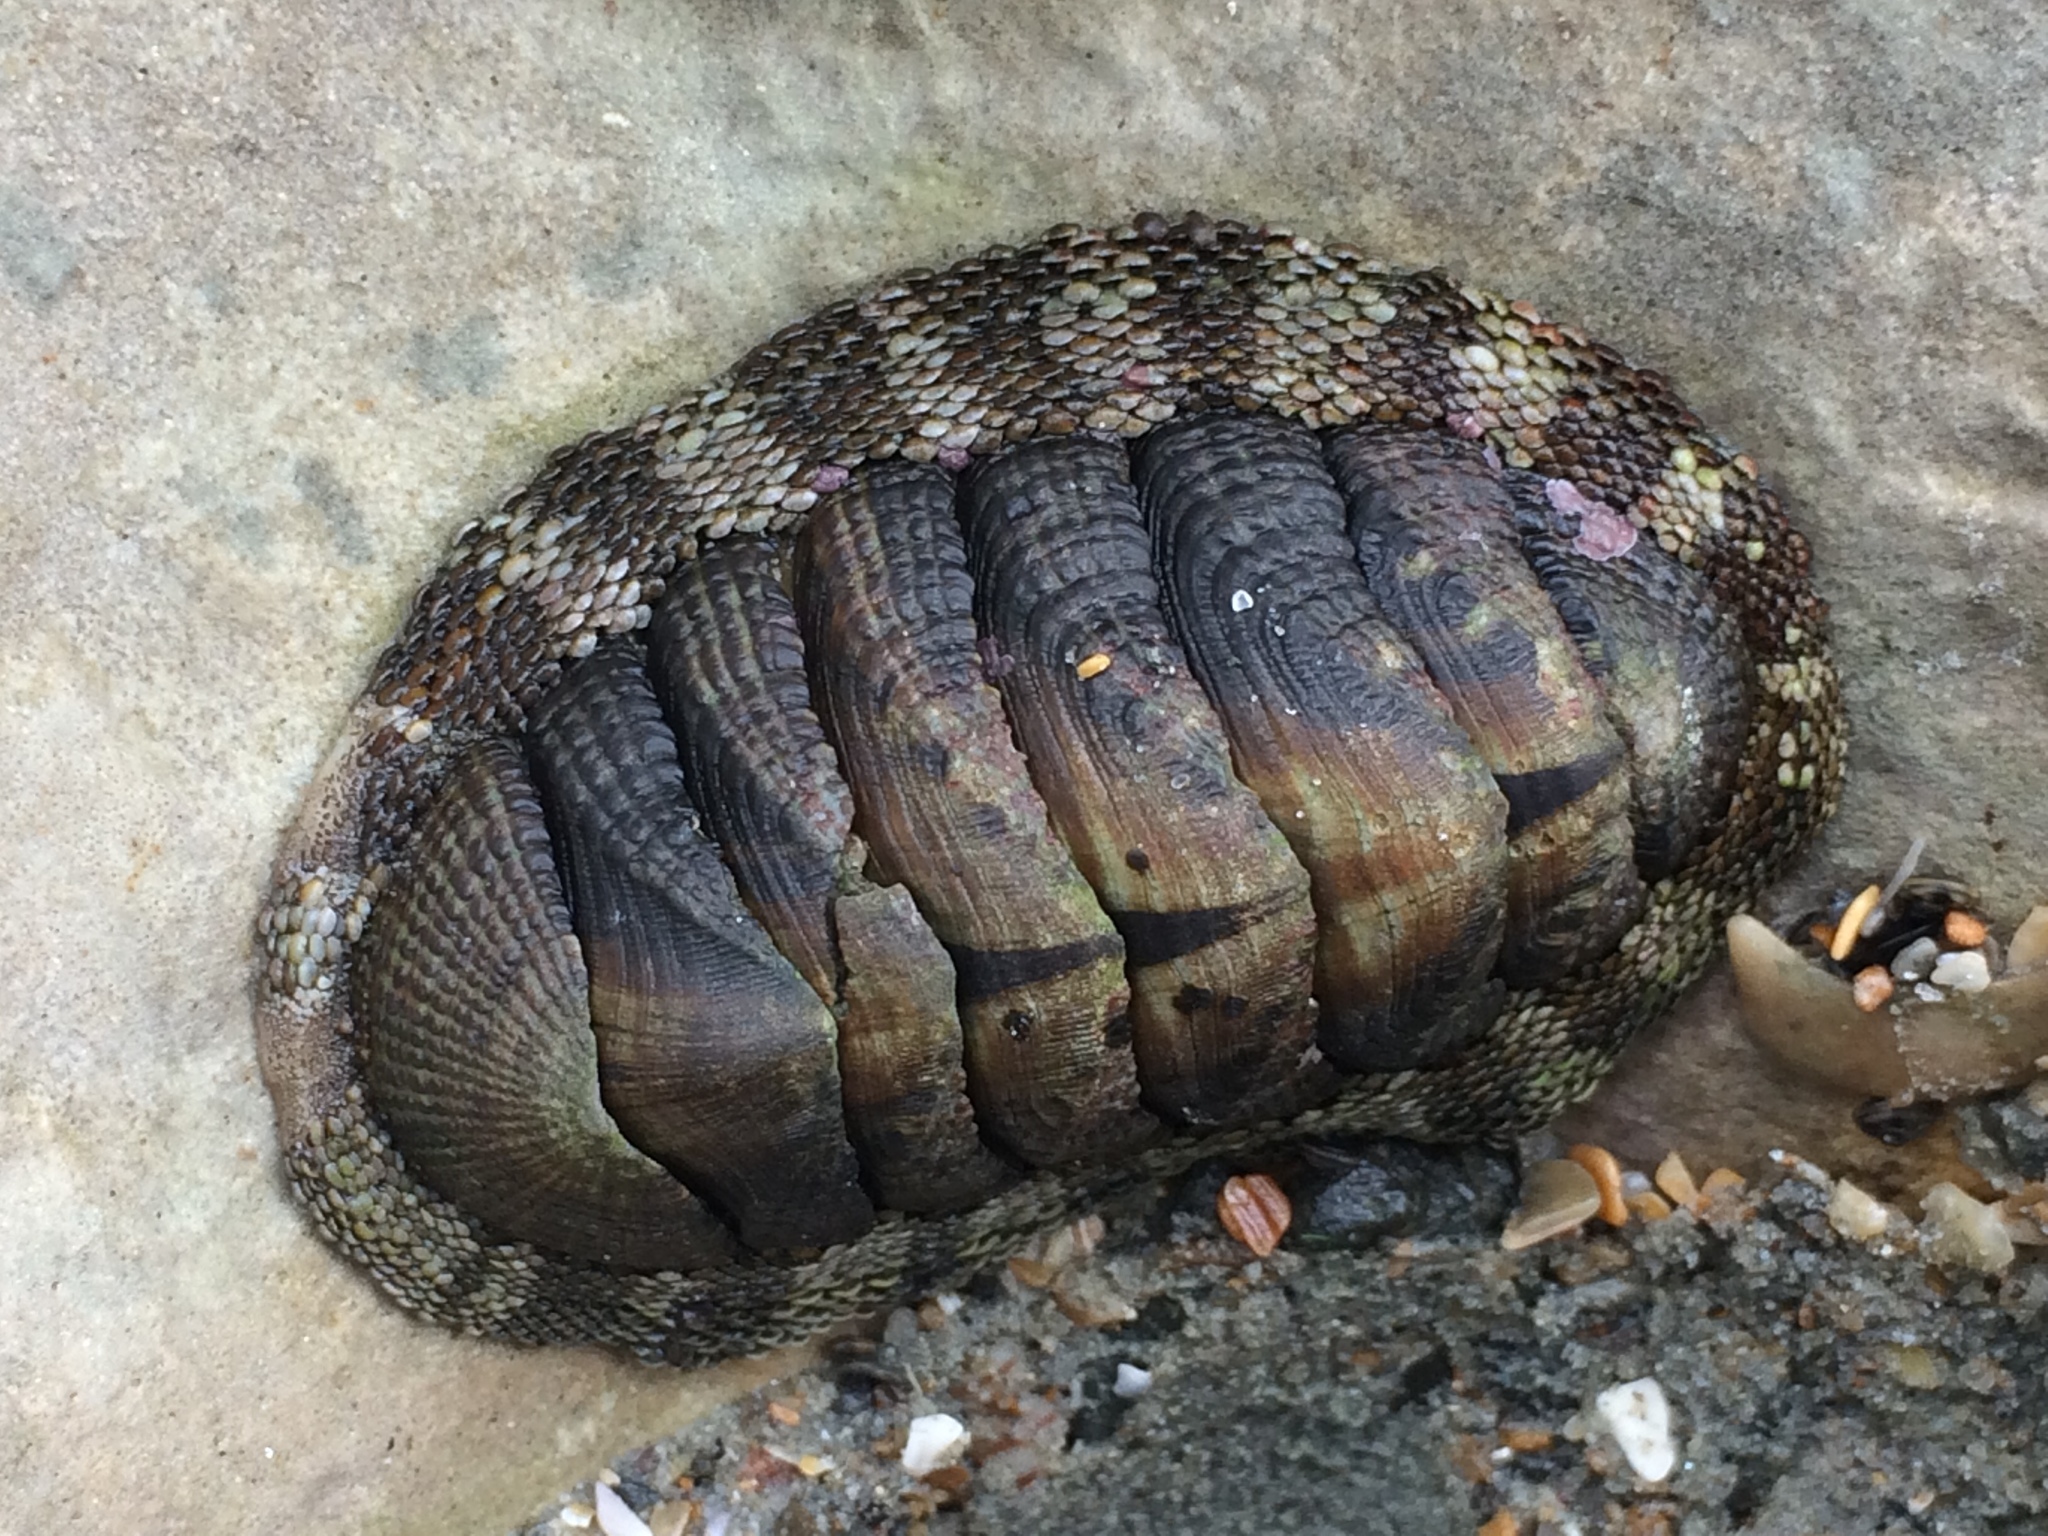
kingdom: Animalia
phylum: Mollusca
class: Polyplacophora
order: Chitonida
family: Chitonidae
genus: Sypharochiton
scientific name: Sypharochiton pelliserpentis
